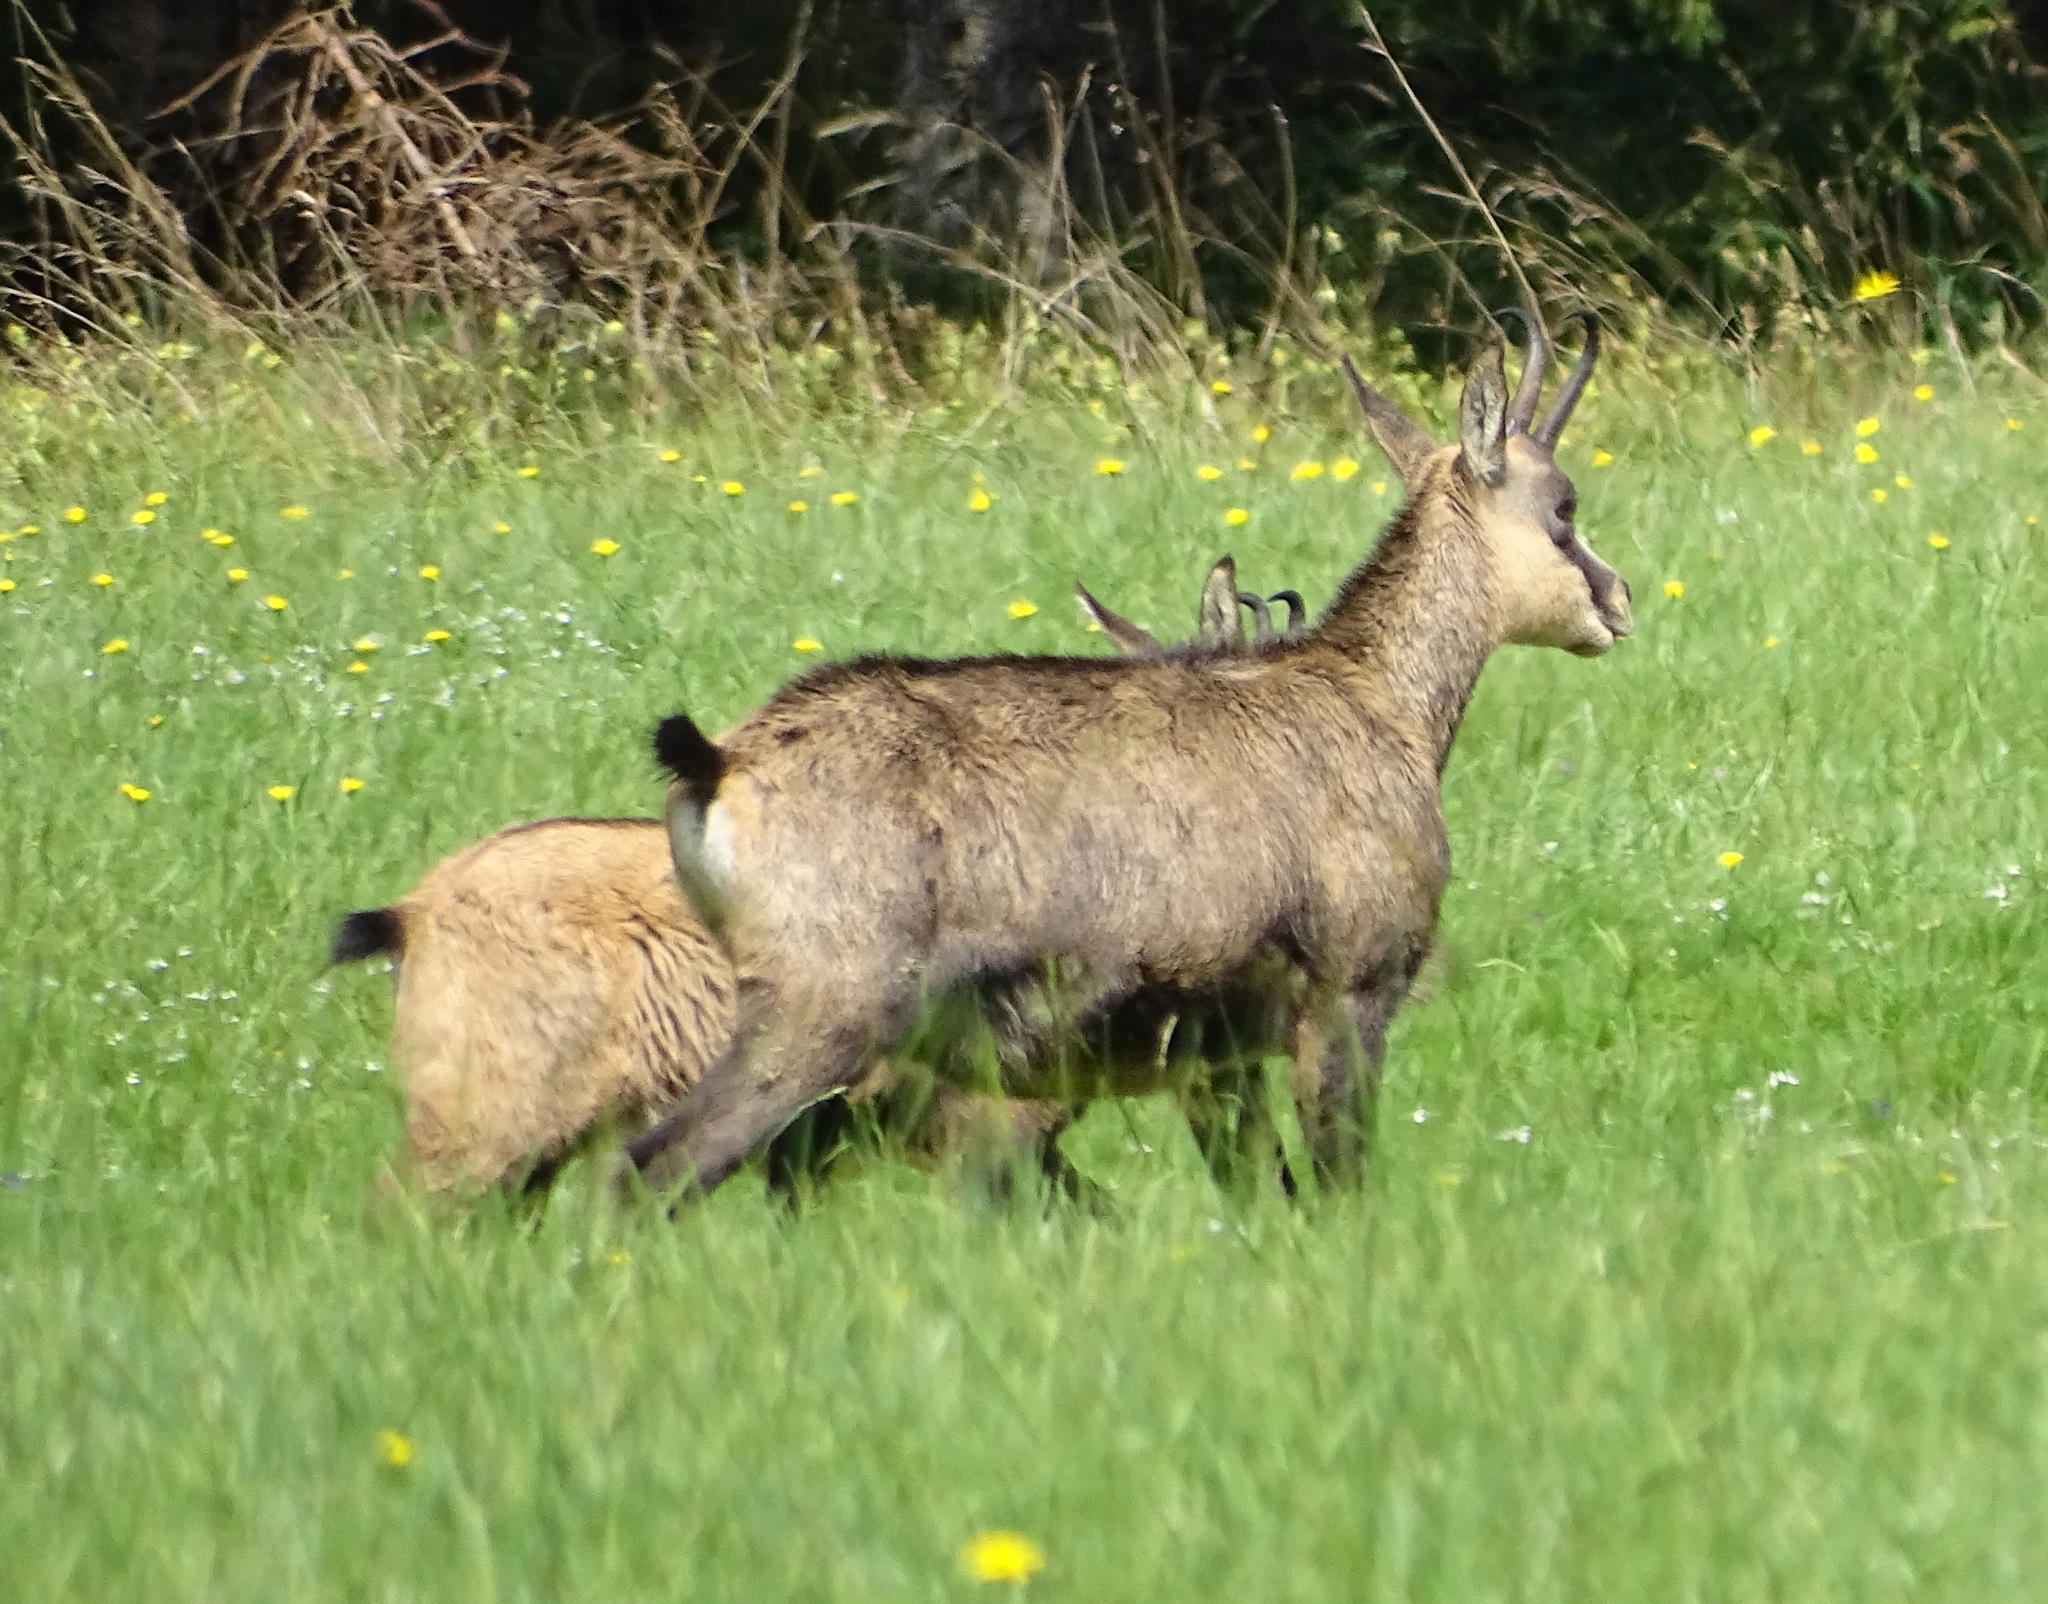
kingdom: Animalia
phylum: Chordata
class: Mammalia
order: Artiodactyla
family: Bovidae
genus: Rupicapra
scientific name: Rupicapra rupicapra
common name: Chamois
